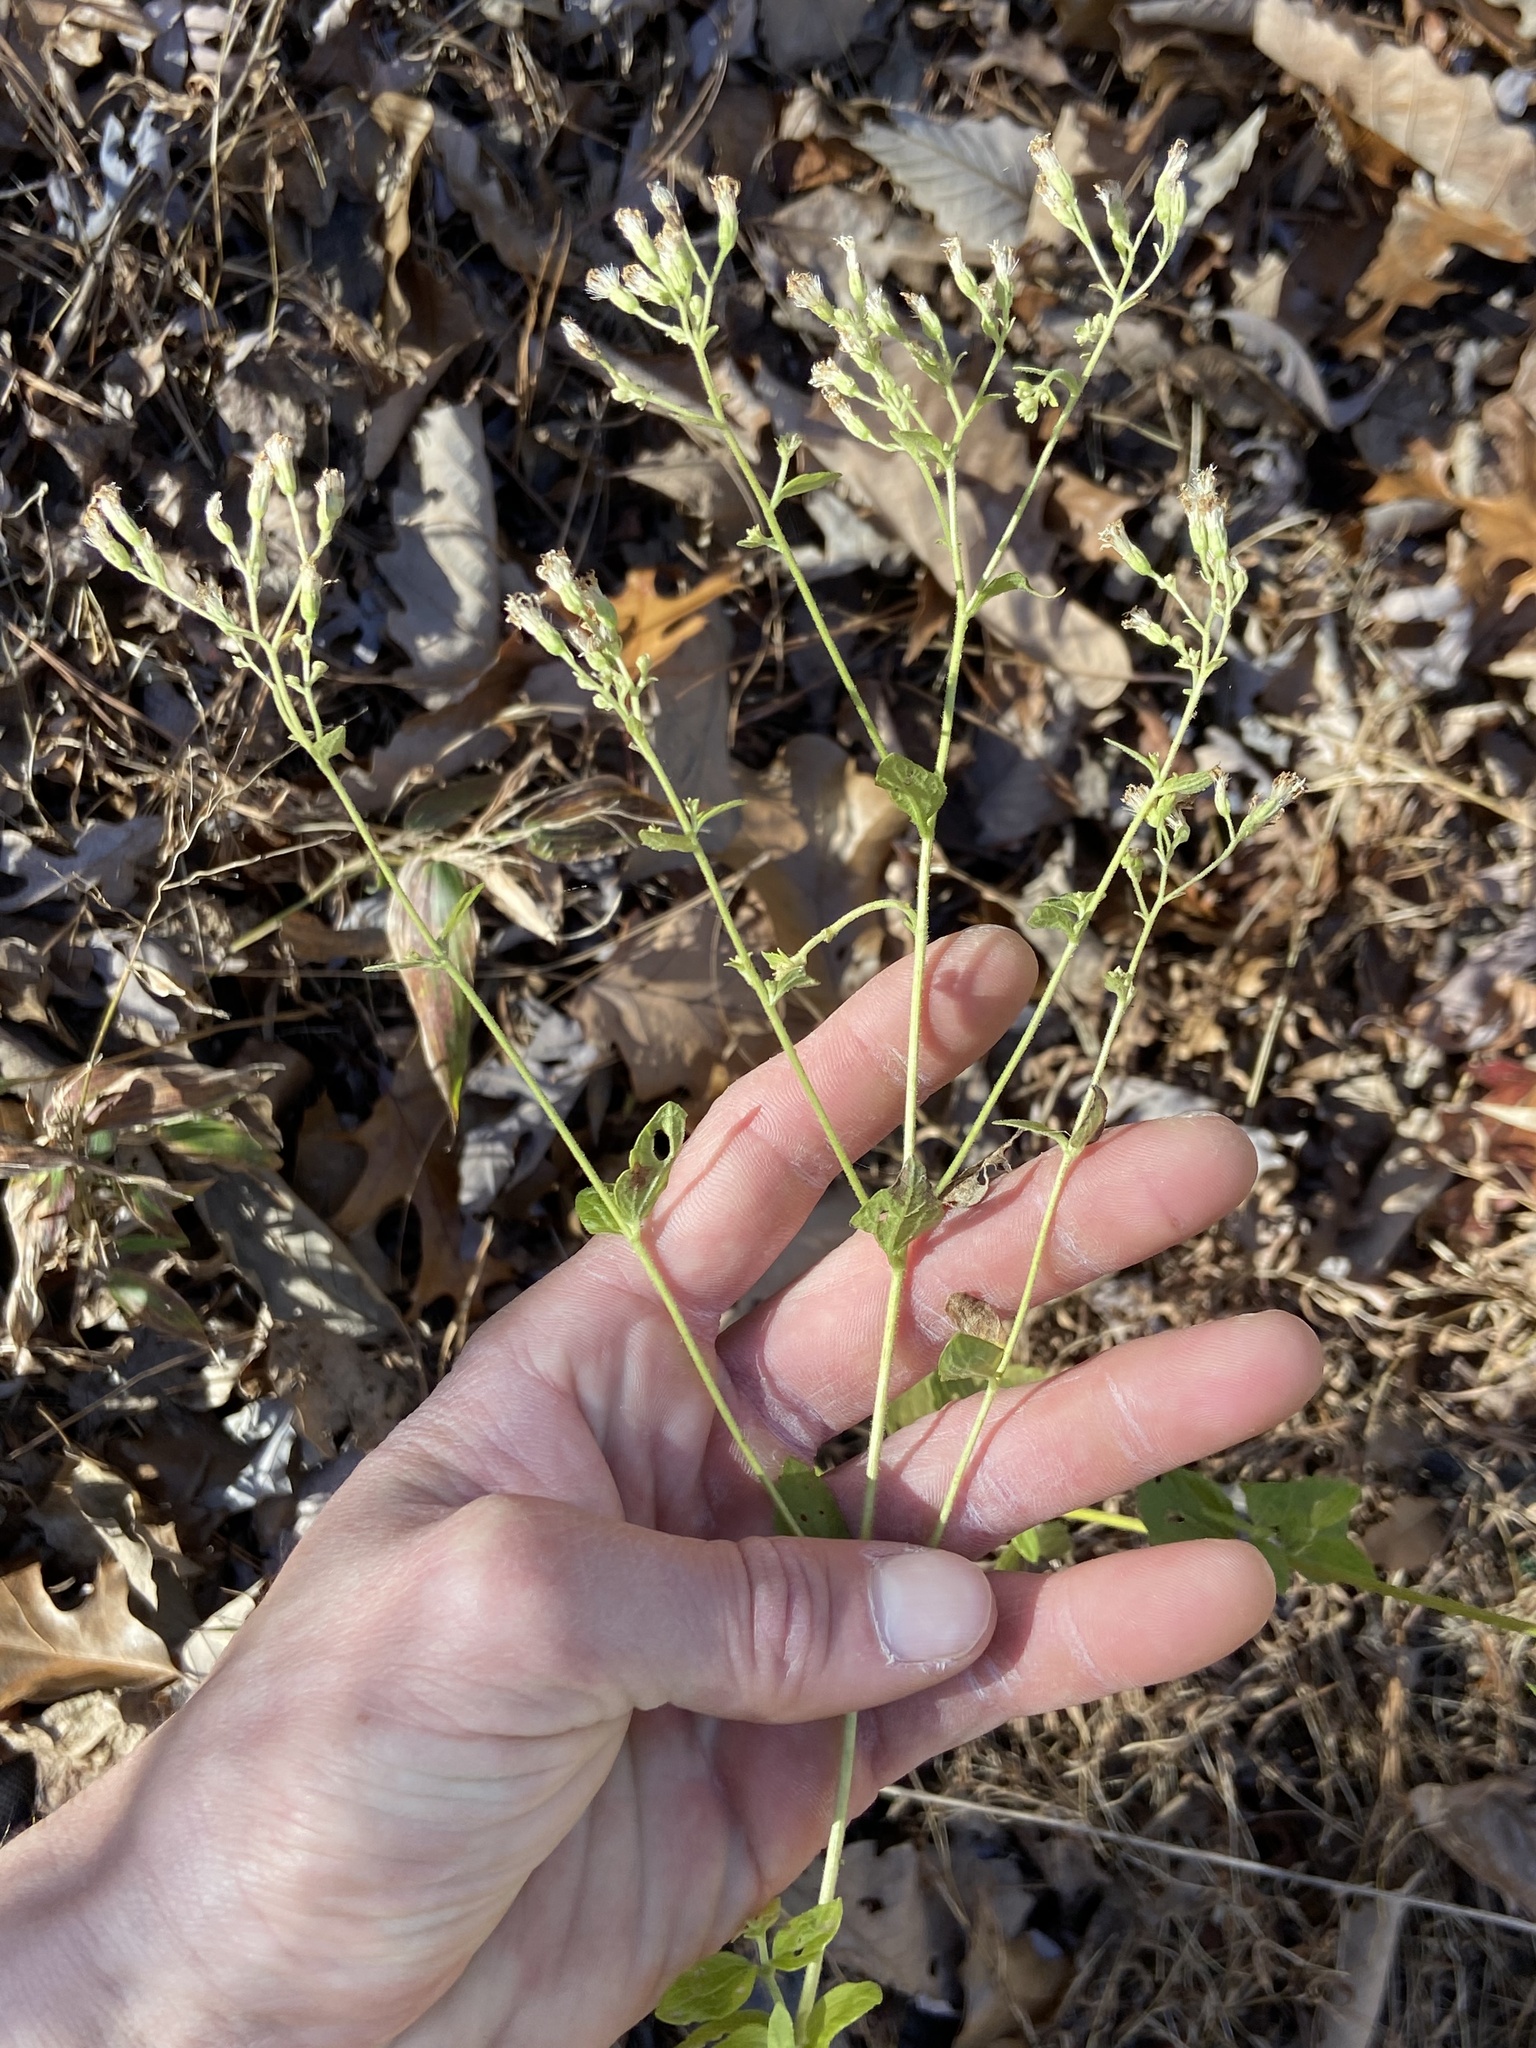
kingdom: Plantae
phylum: Tracheophyta
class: Magnoliopsida
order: Asterales
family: Asteraceae
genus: Ageratina
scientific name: Ageratina aromatica
